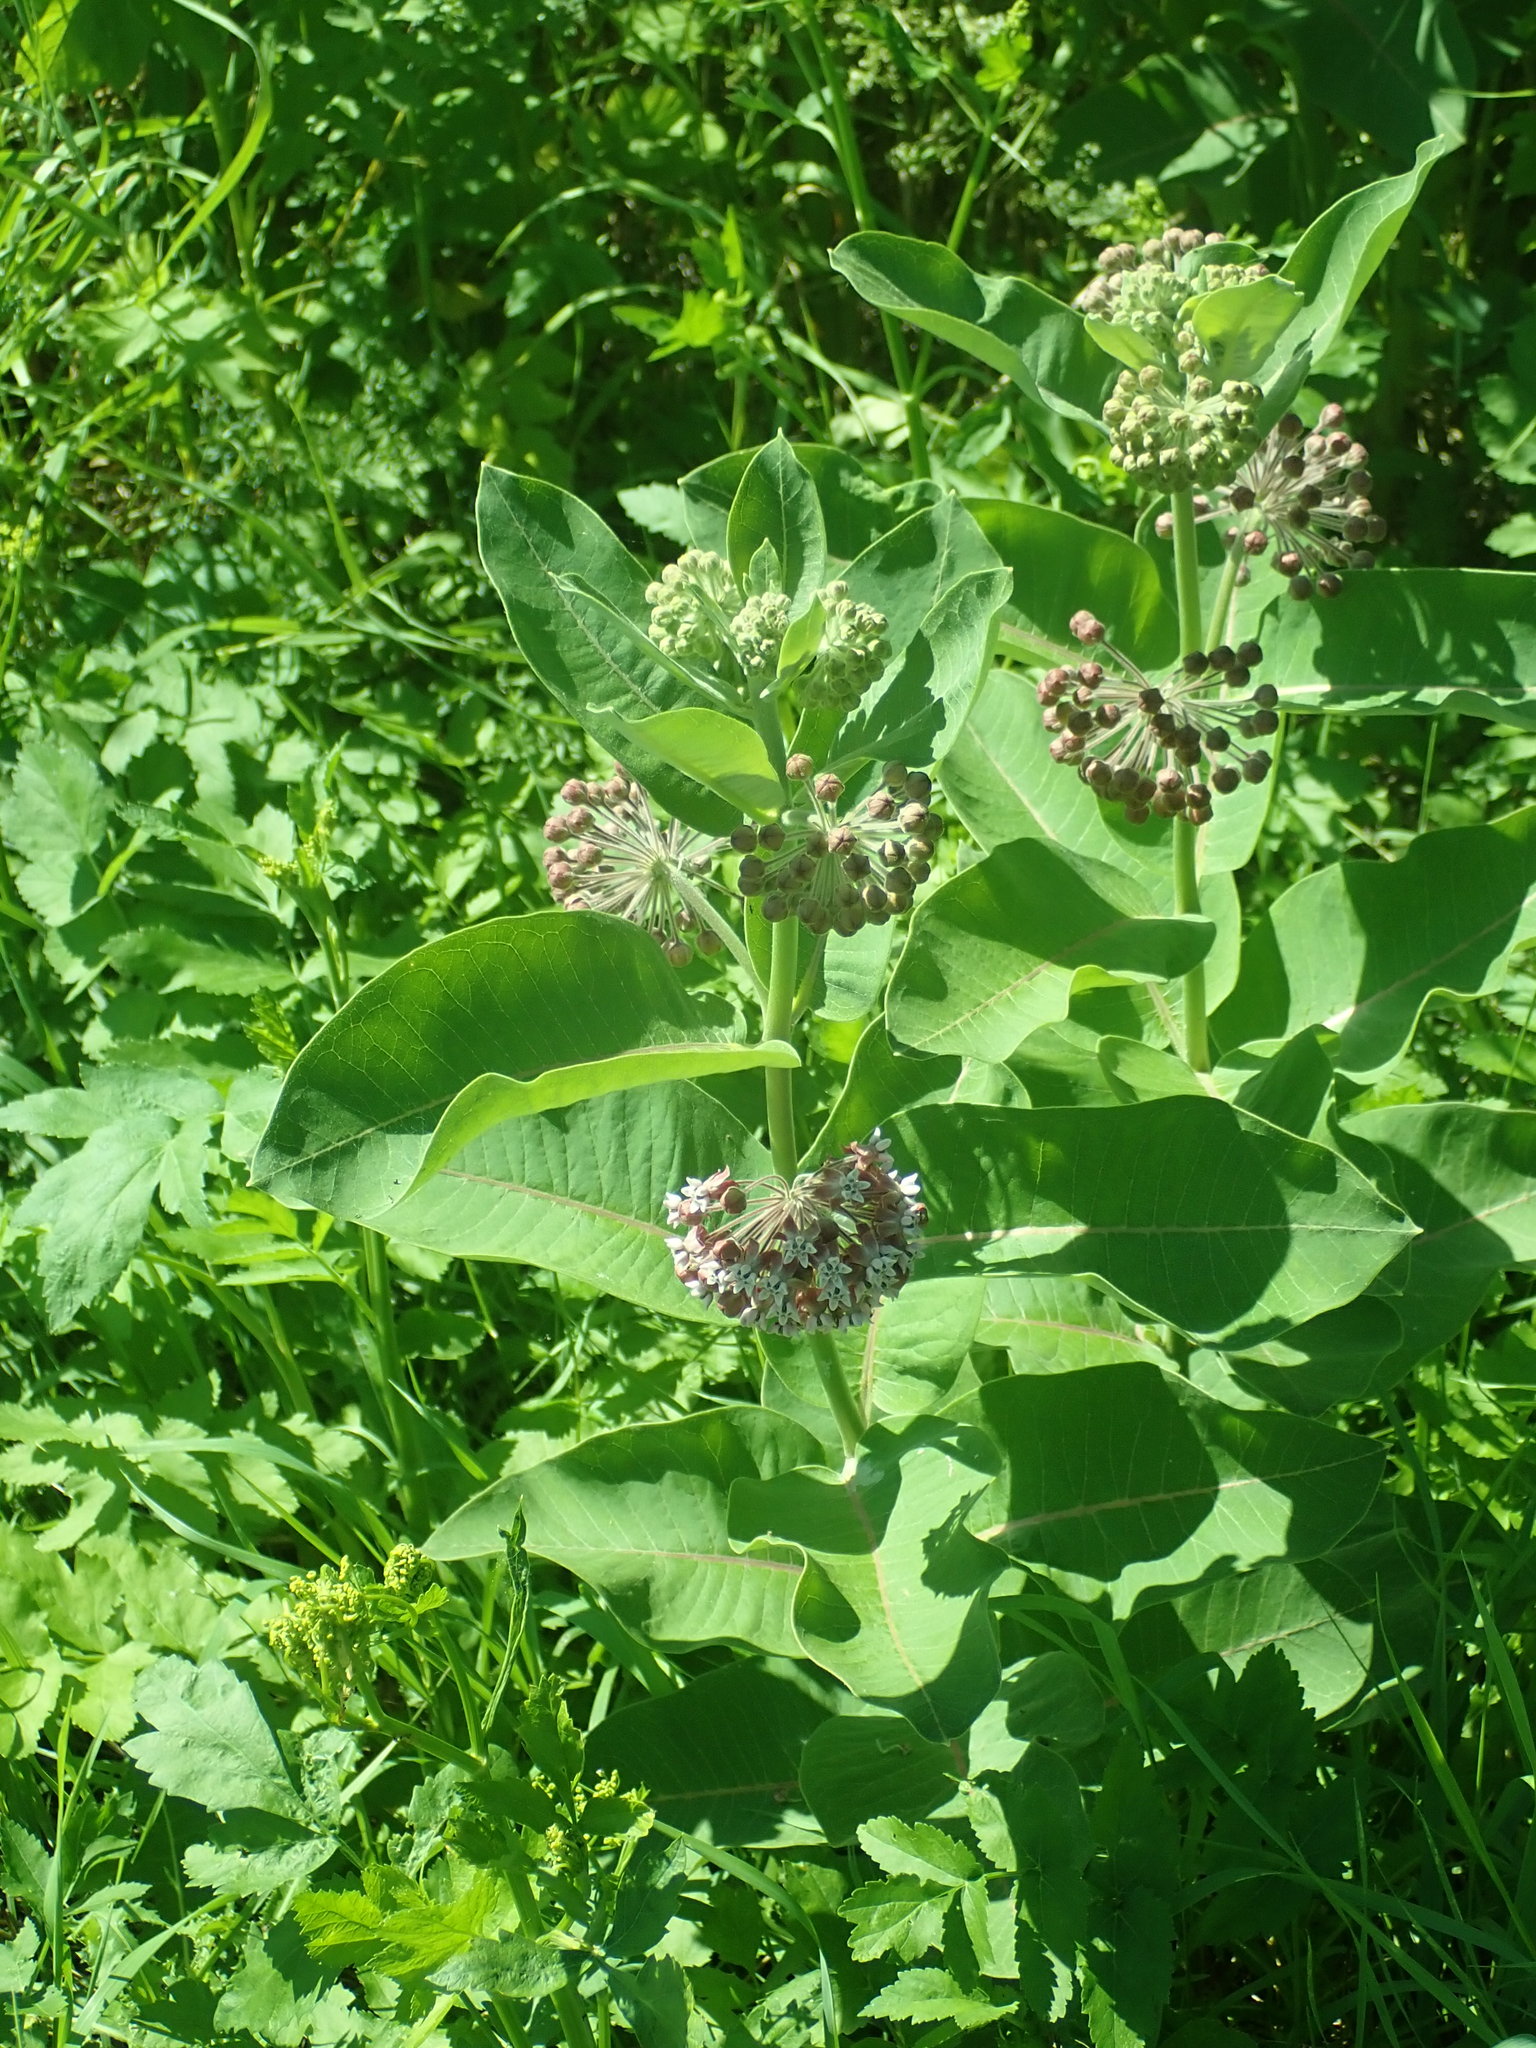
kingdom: Plantae
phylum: Tracheophyta
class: Magnoliopsida
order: Gentianales
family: Apocynaceae
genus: Asclepias
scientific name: Asclepias syriaca
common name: Common milkweed
